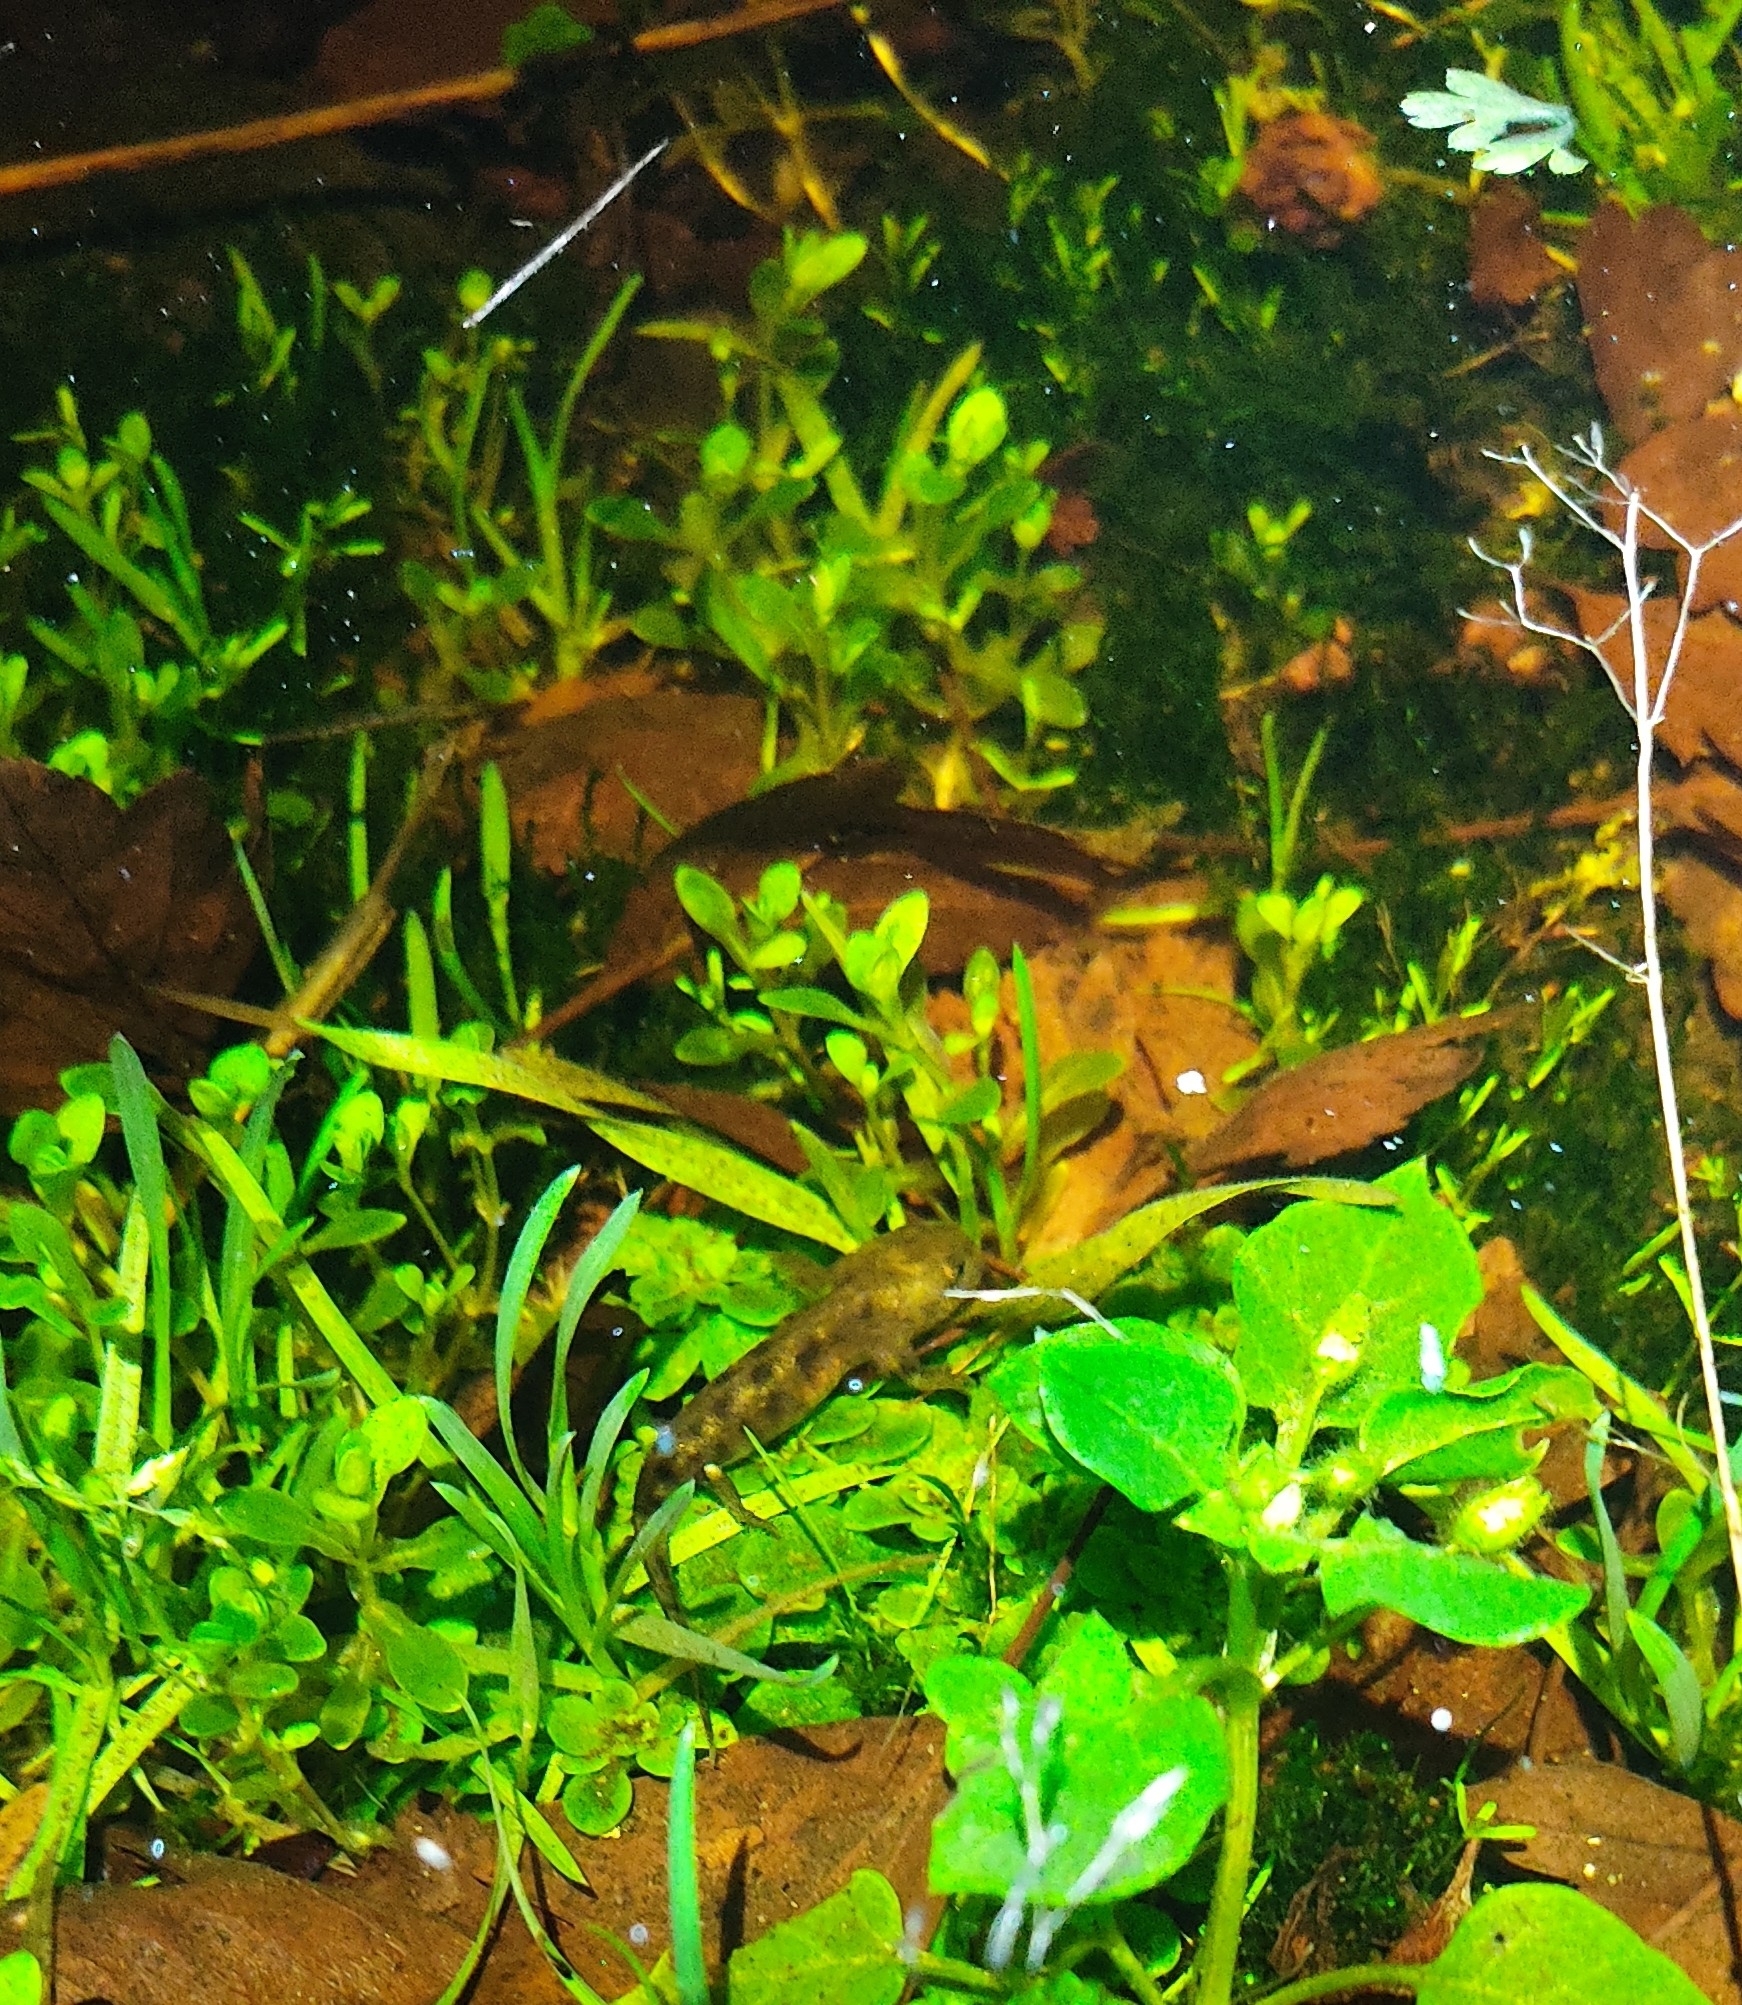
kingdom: Animalia
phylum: Chordata
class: Amphibia
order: Caudata
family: Salamandridae
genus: Salamandra
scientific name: Salamandra salamandra
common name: Fire salamander
